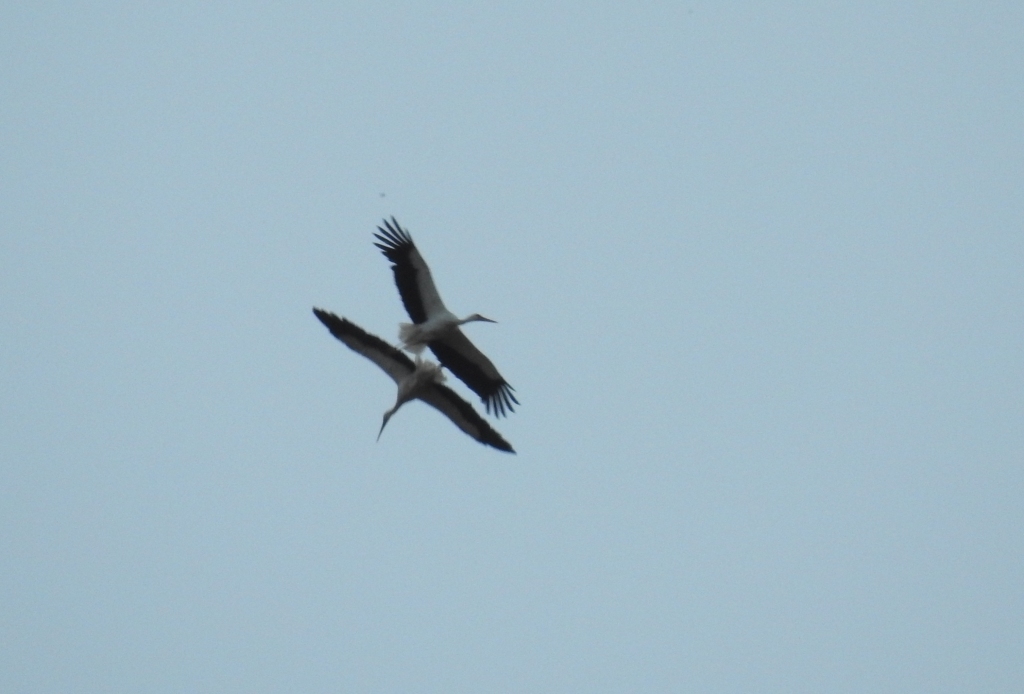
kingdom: Animalia
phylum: Chordata
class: Aves
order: Ciconiiformes
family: Ciconiidae
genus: Ciconia
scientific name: Ciconia ciconia
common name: White stork
